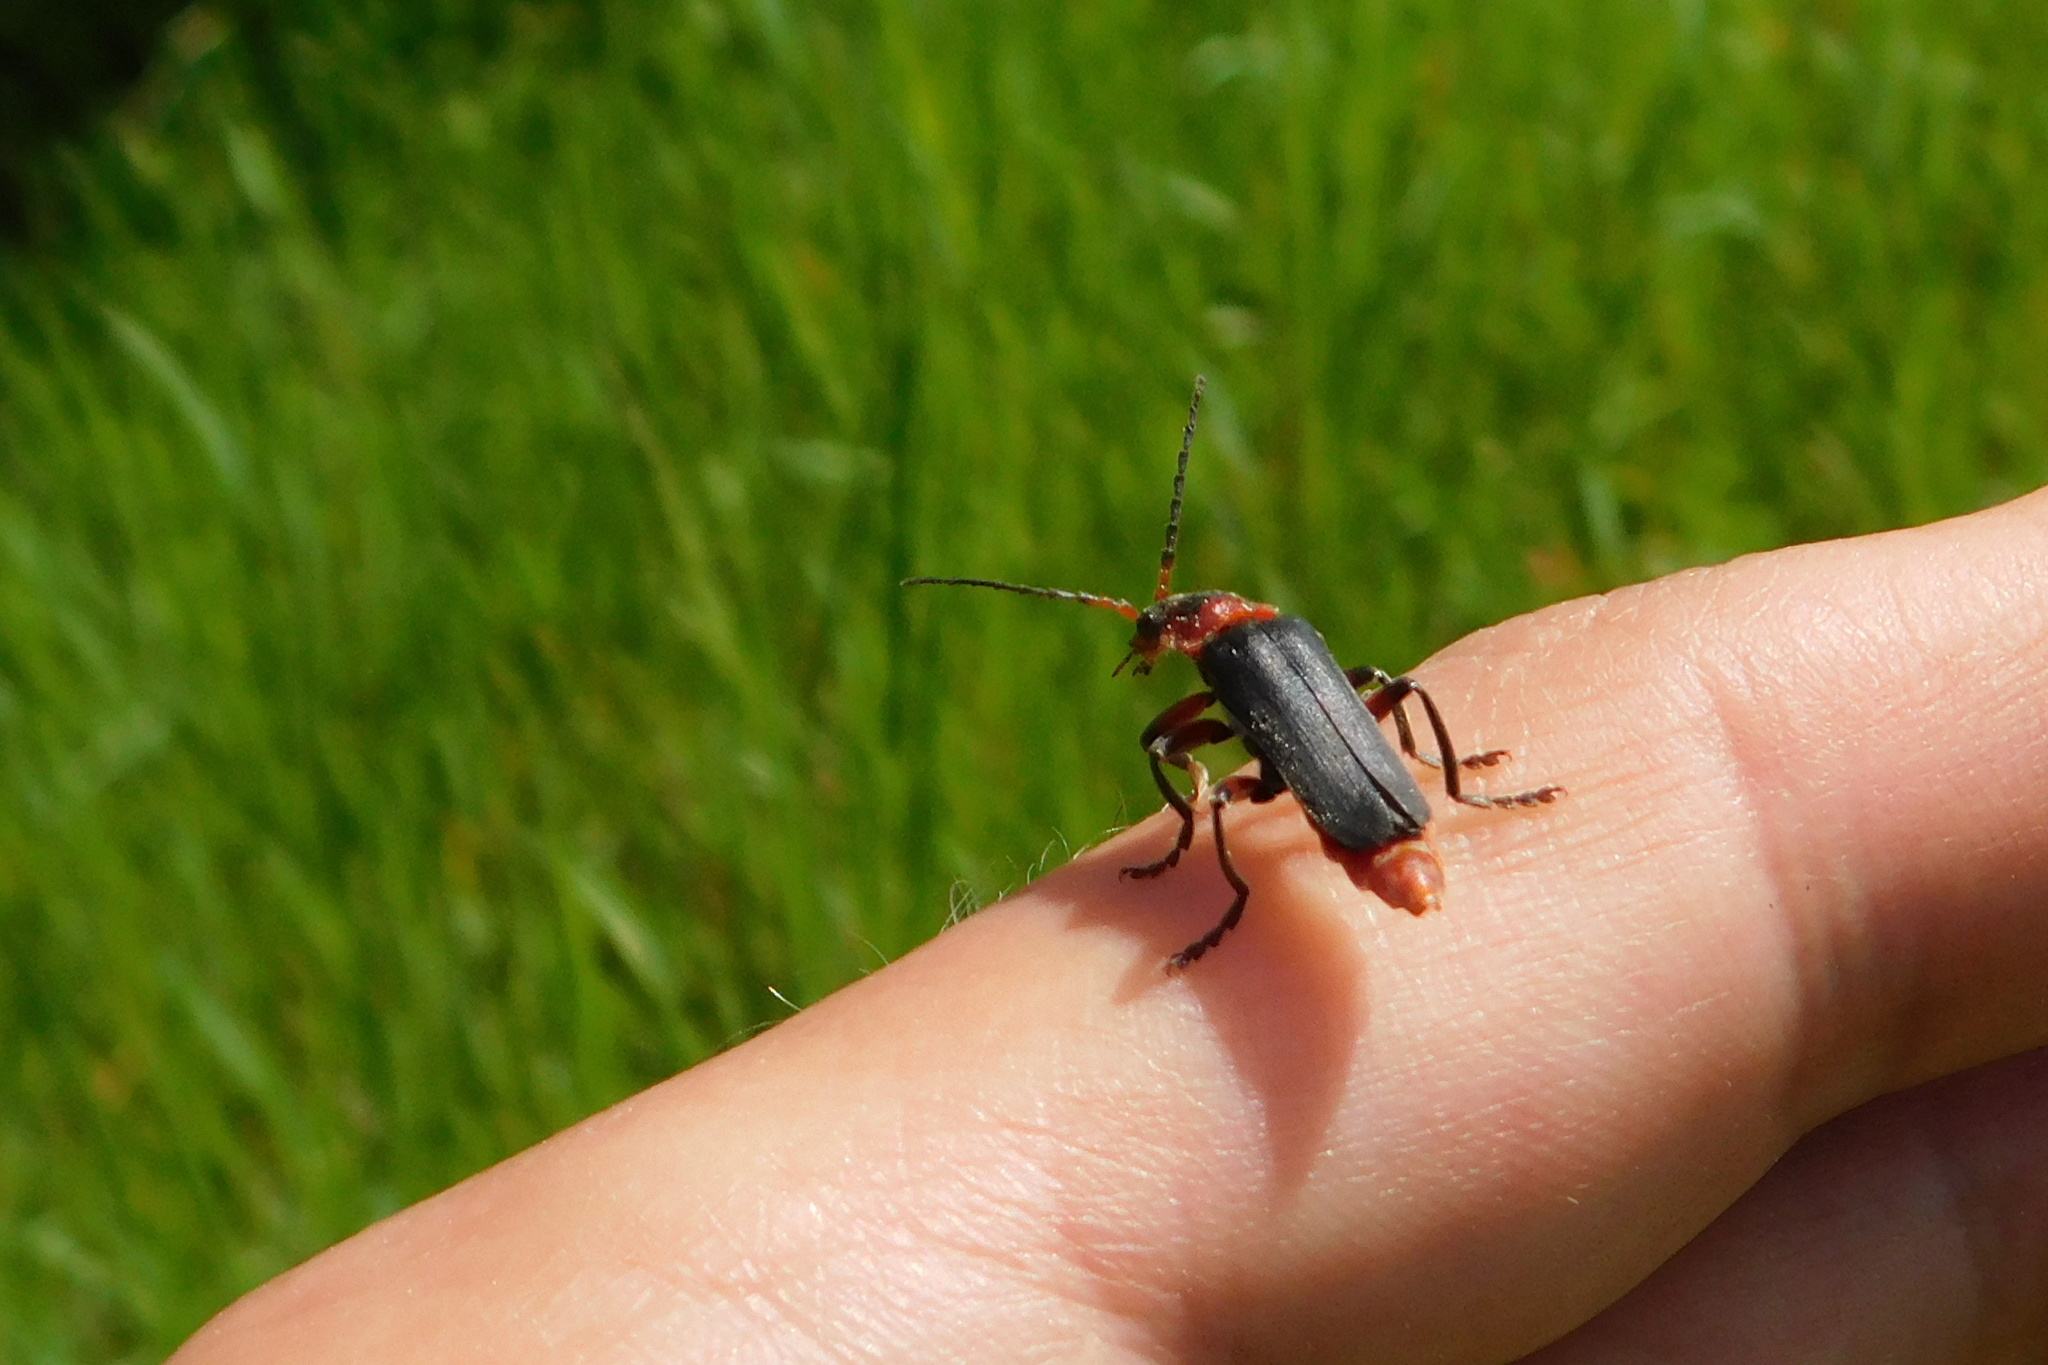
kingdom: Animalia
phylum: Arthropoda
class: Insecta
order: Coleoptera
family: Cantharidae
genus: Cantharis
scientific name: Cantharis rustica
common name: Soldier beetle
